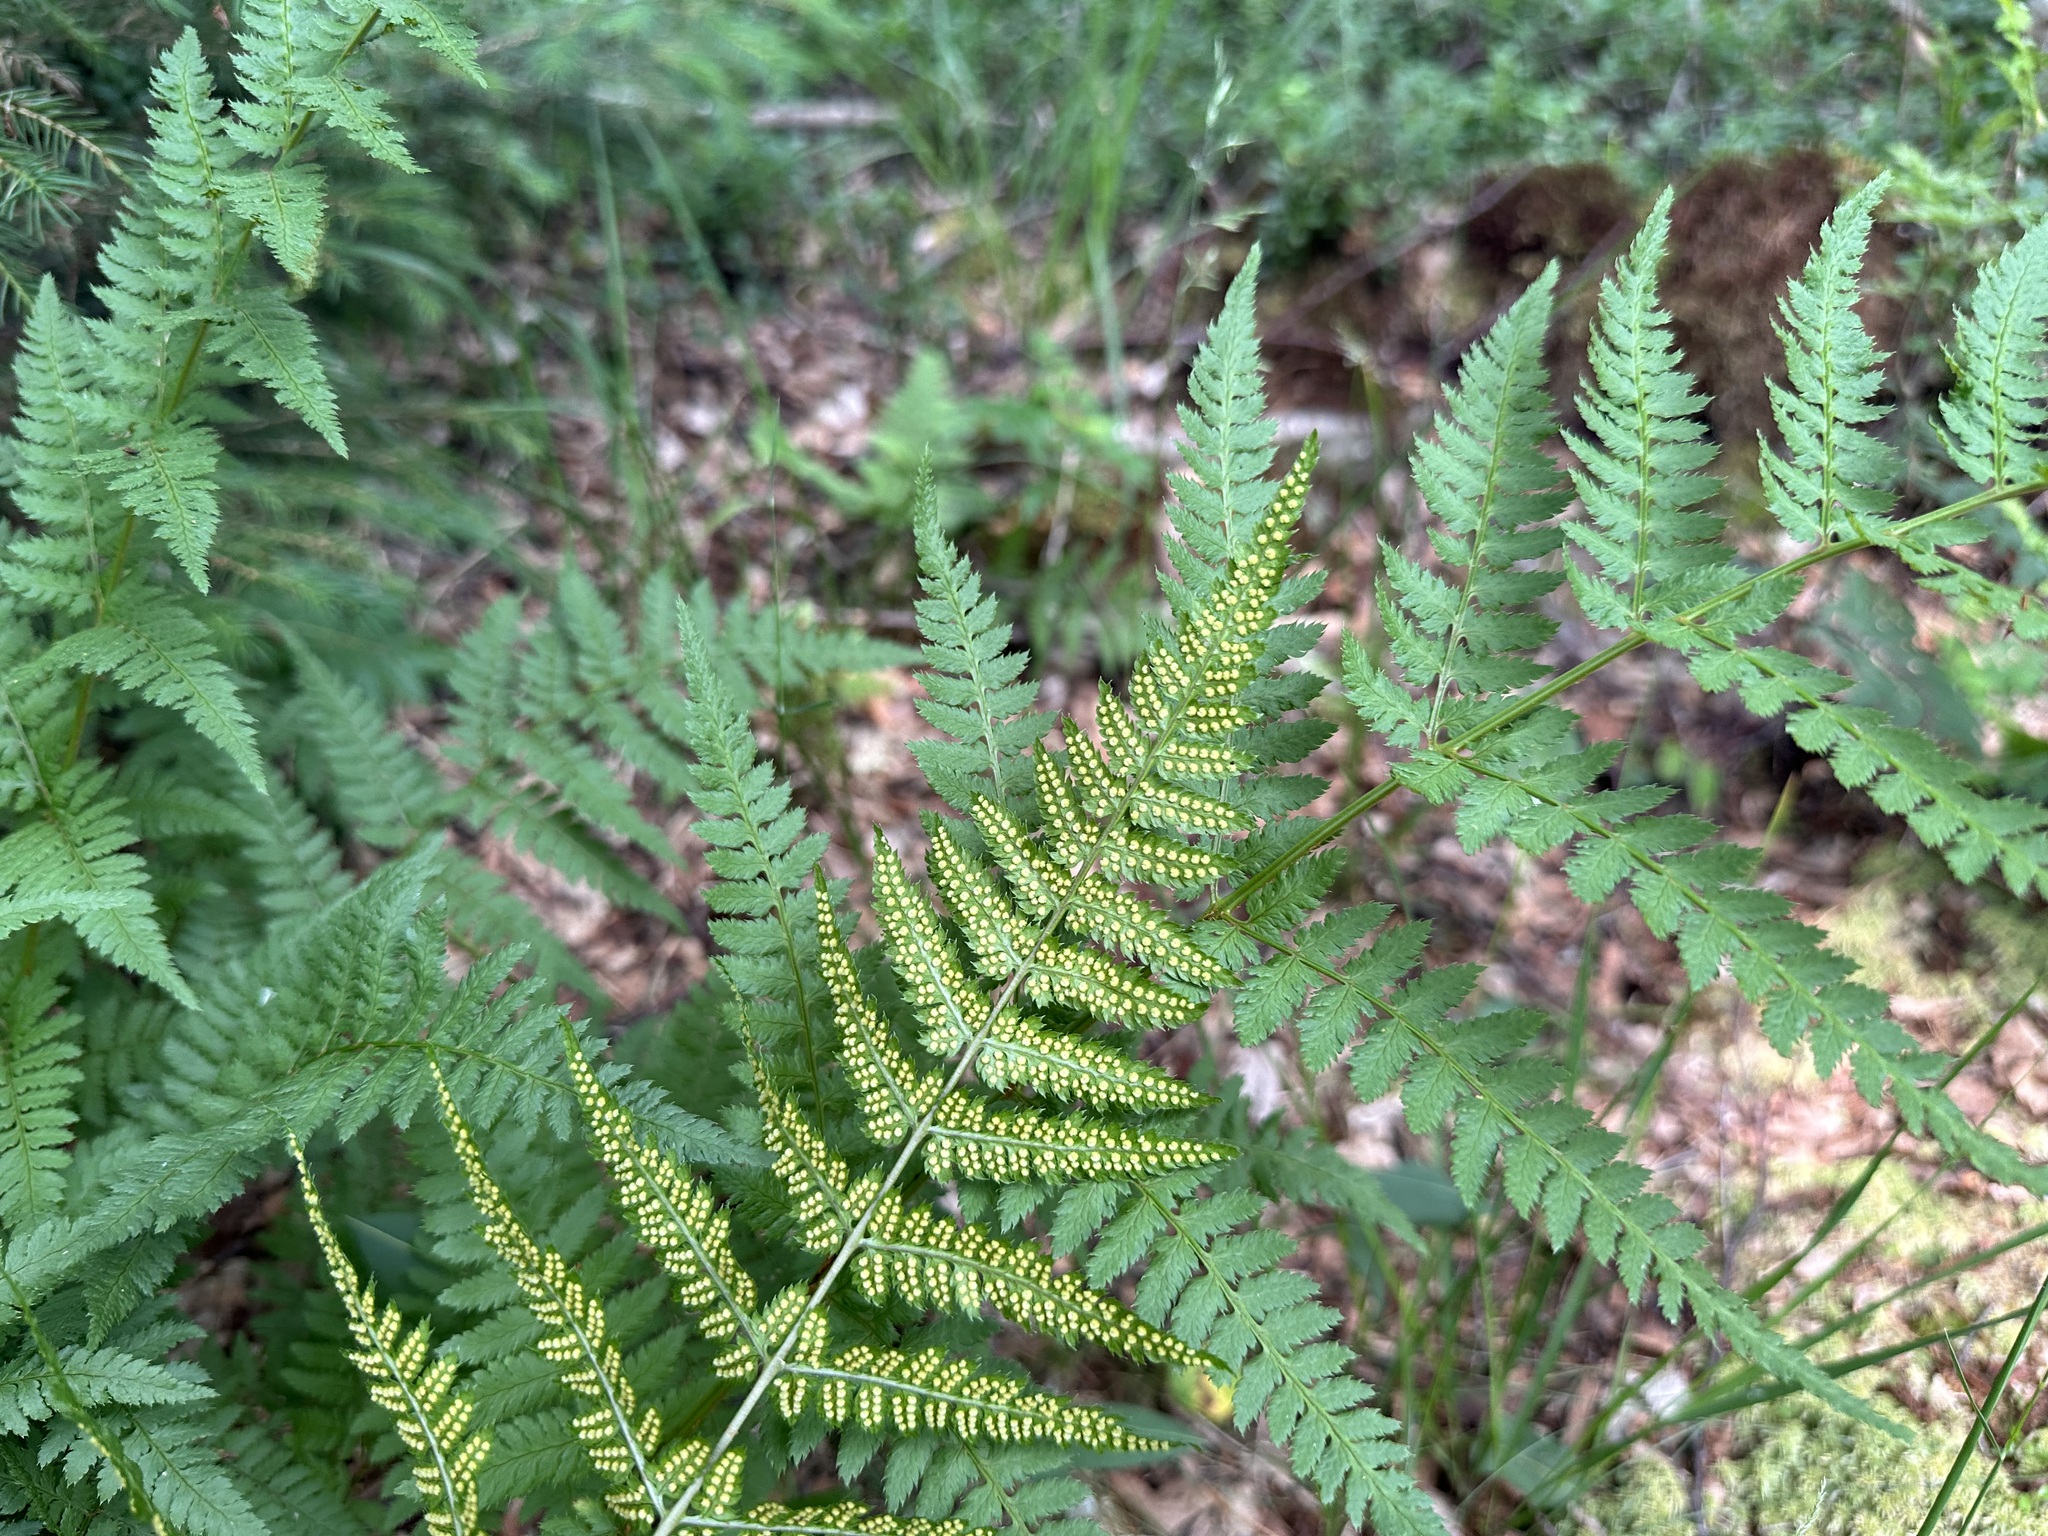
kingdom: Plantae
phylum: Tracheophyta
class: Polypodiopsida
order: Polypodiales
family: Dryopteridaceae
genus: Dryopteris
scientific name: Dryopteris carthusiana
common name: Narrow buckler-fern
